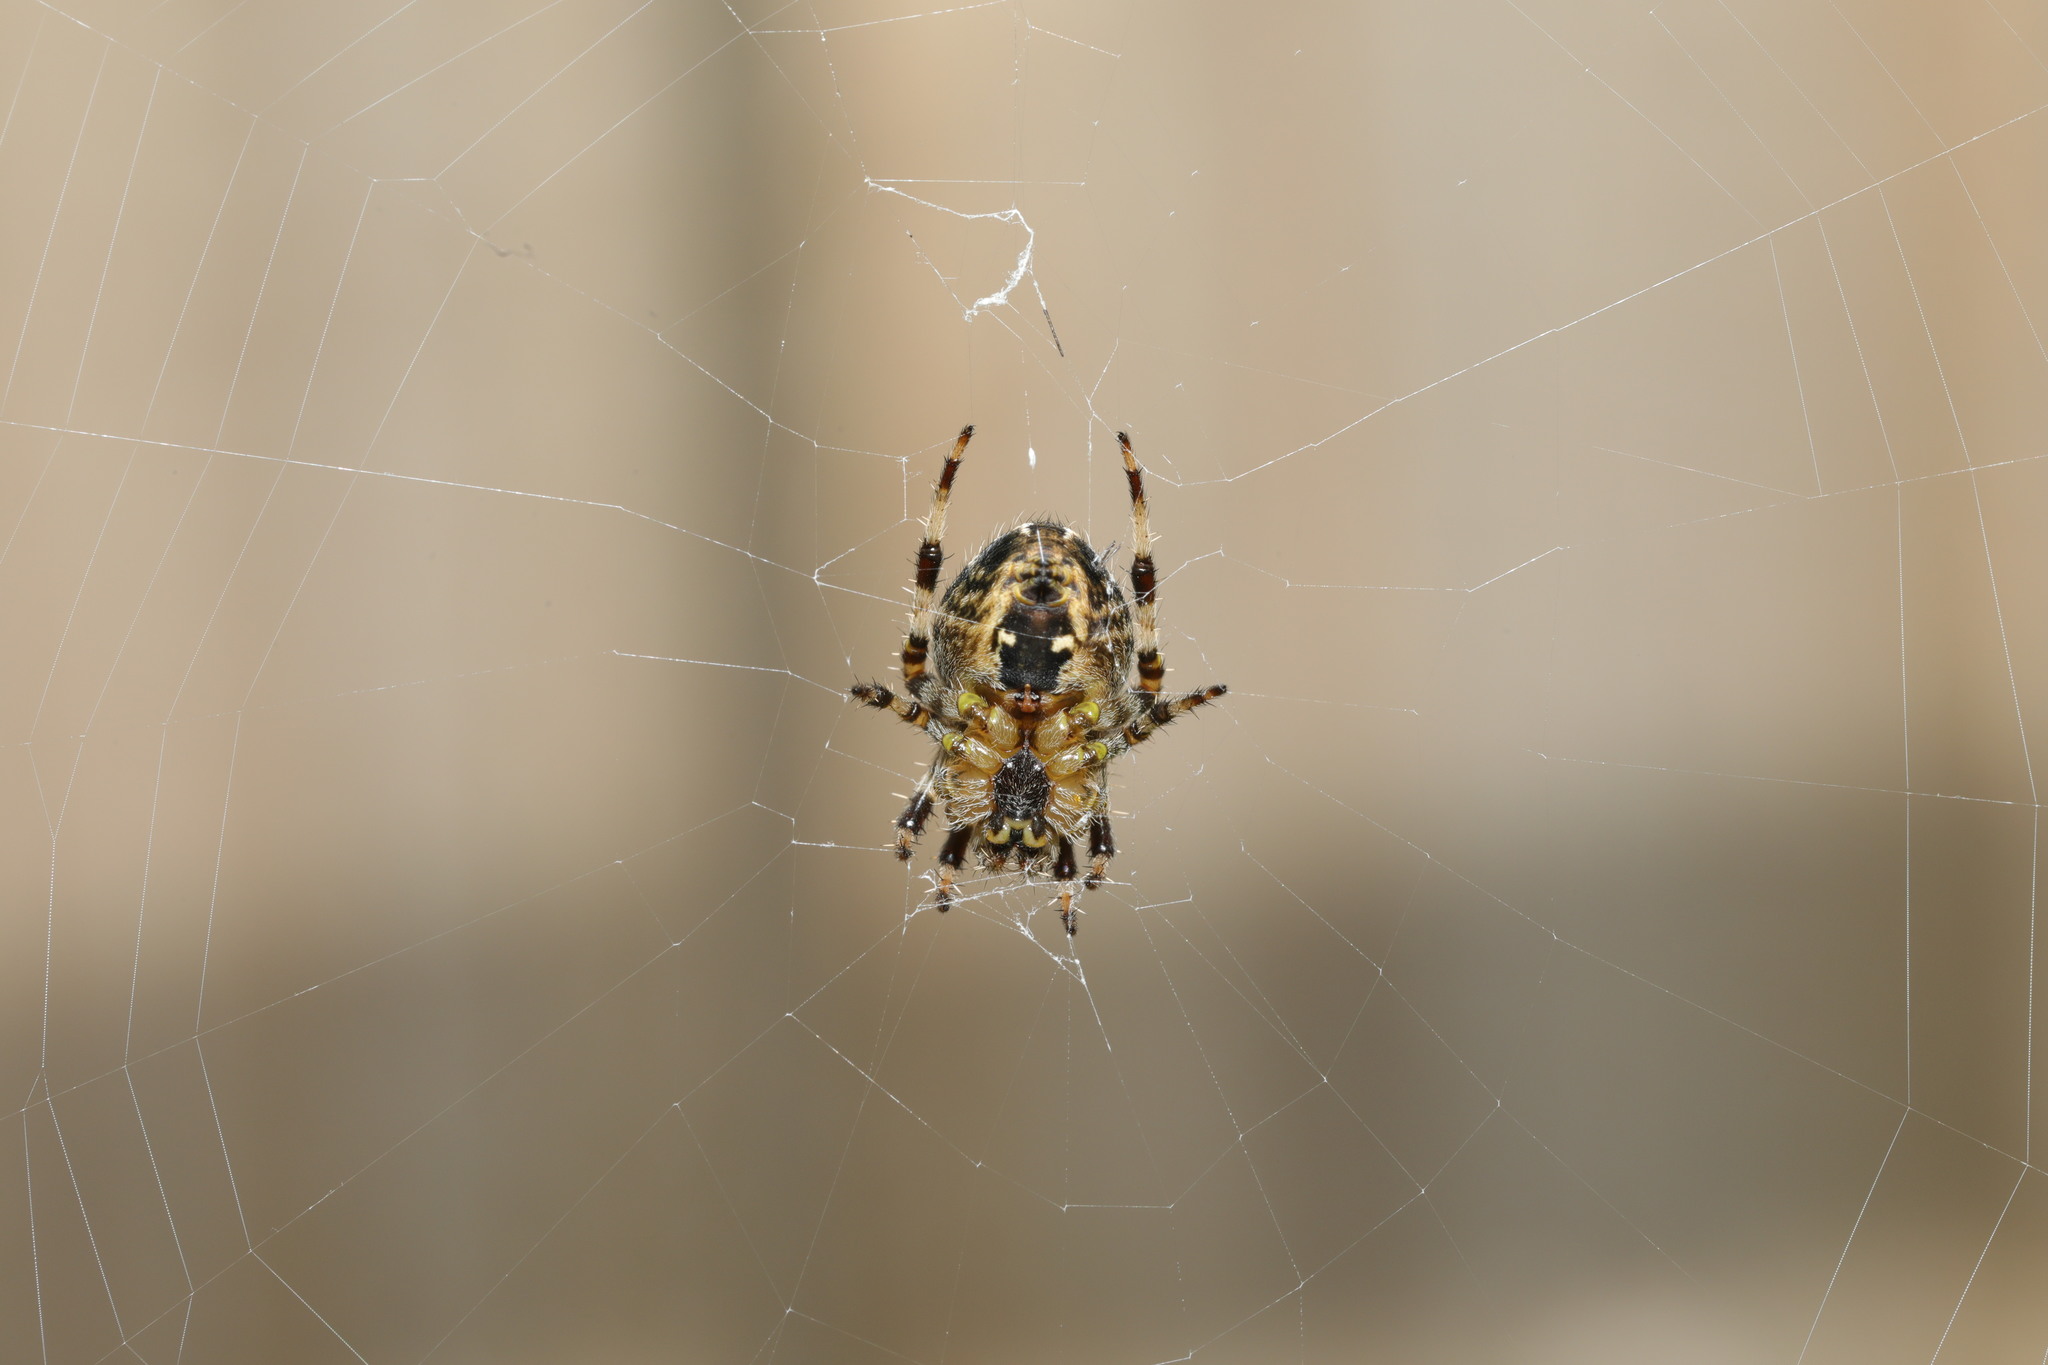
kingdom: Animalia
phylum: Arthropoda
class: Arachnida
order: Araneae
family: Araneidae
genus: Araneus
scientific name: Araneus diadematus
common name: Cross orbweaver
